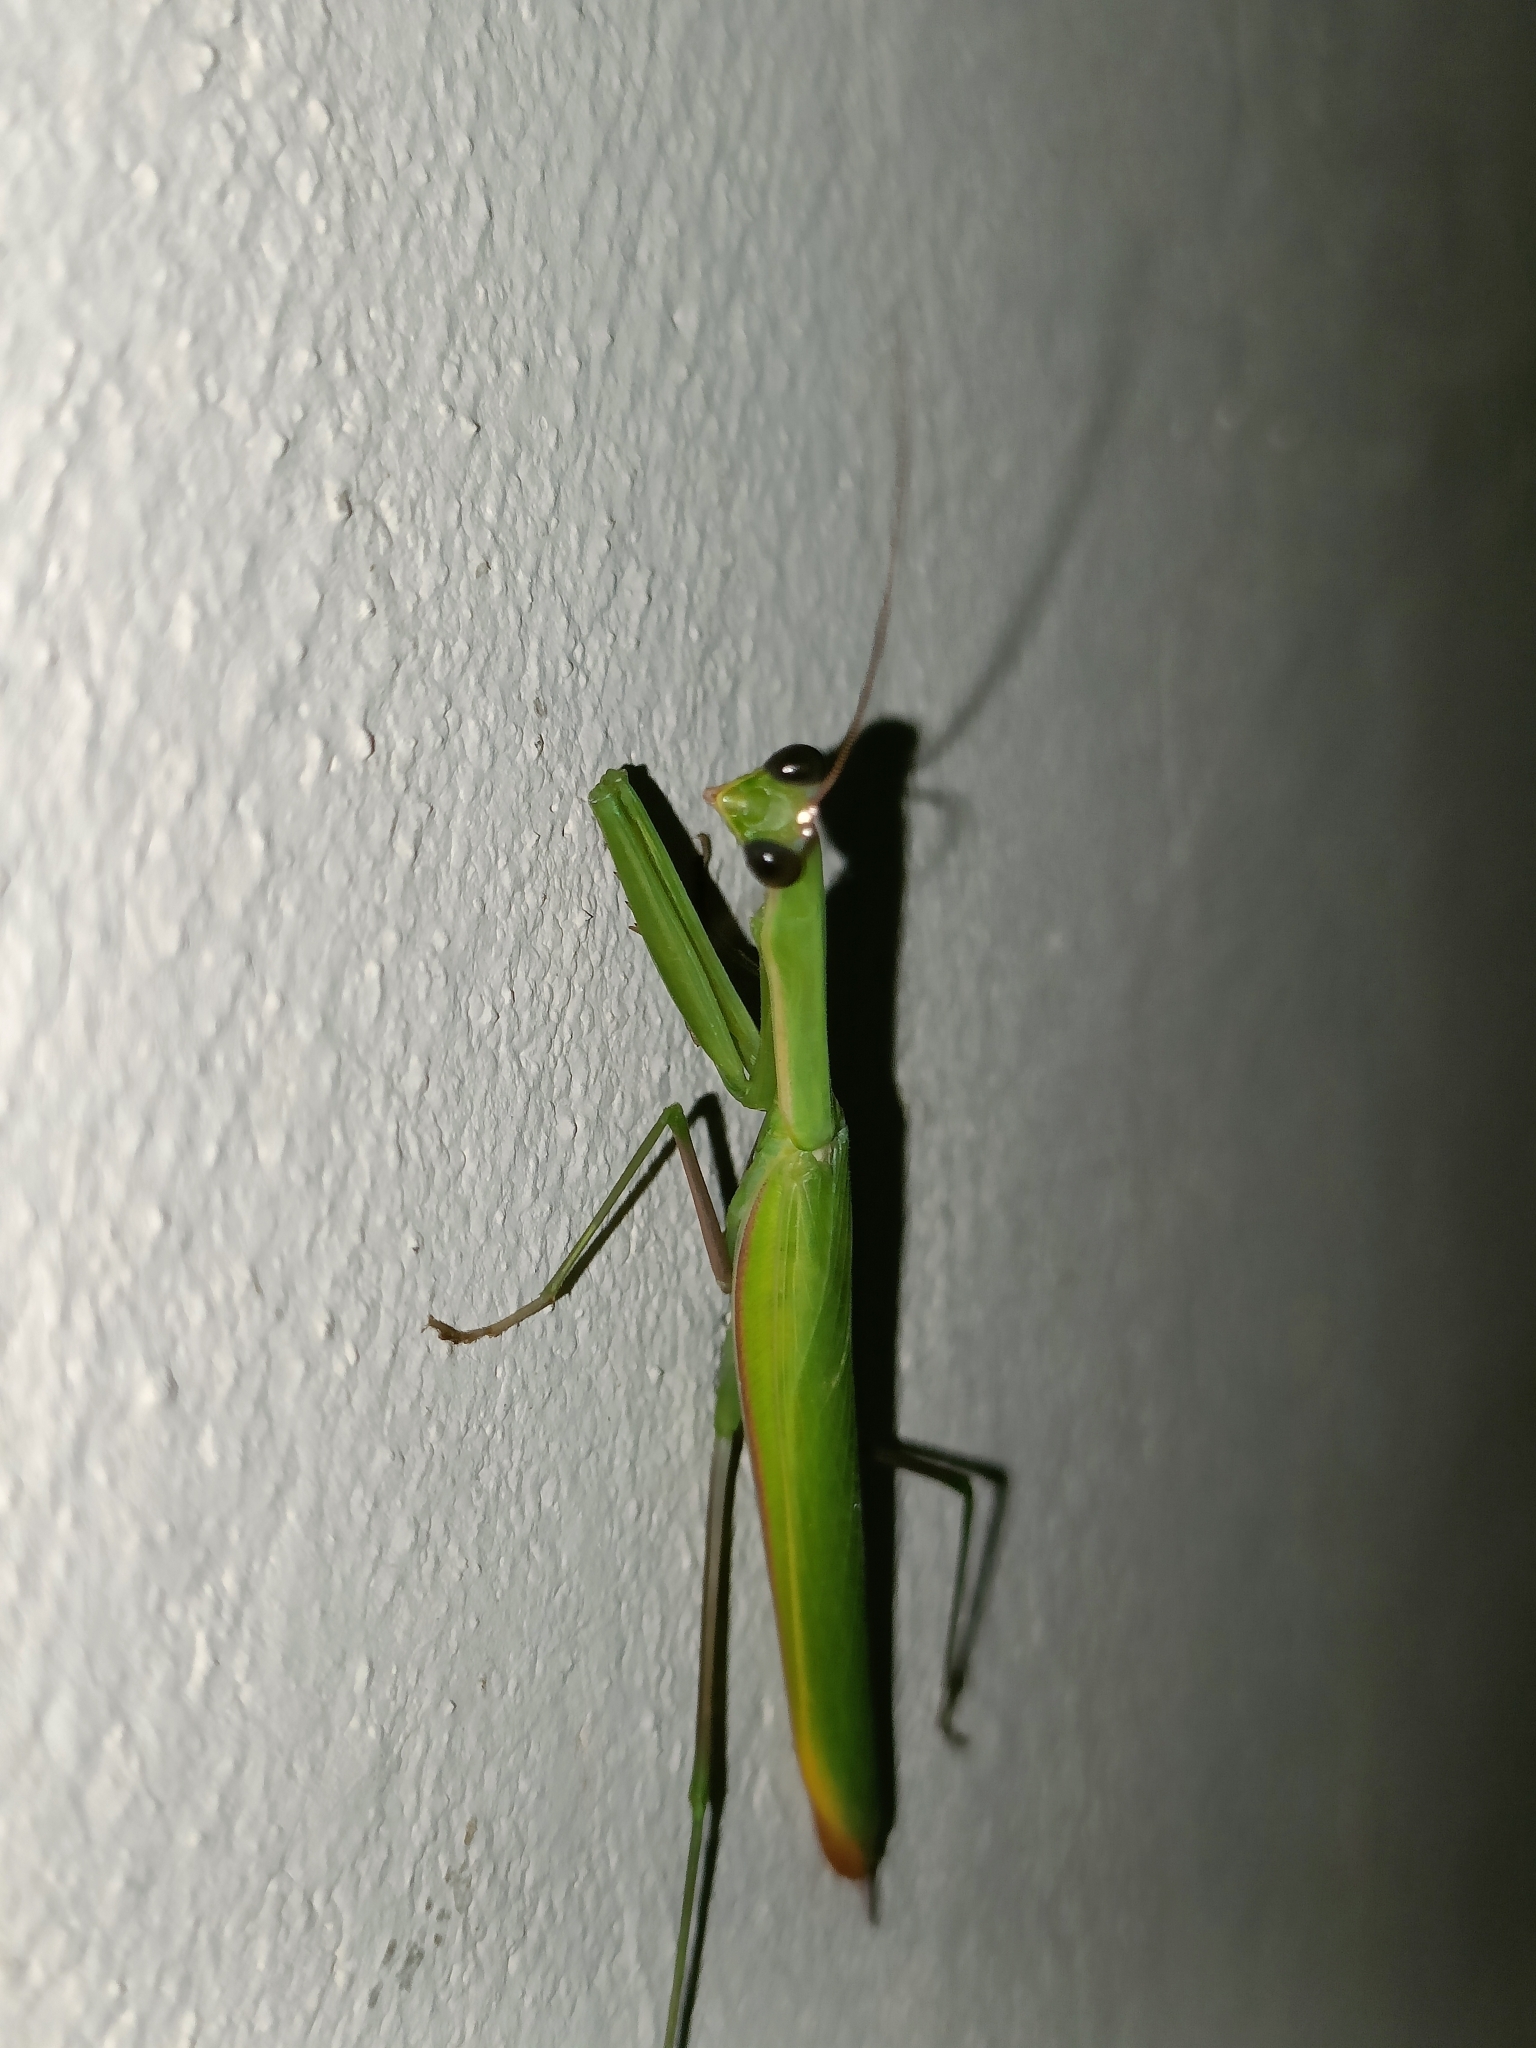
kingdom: Animalia
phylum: Arthropoda
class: Insecta
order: Mantodea
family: Mantidae
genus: Mantis
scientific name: Mantis religiosa
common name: Praying mantis
